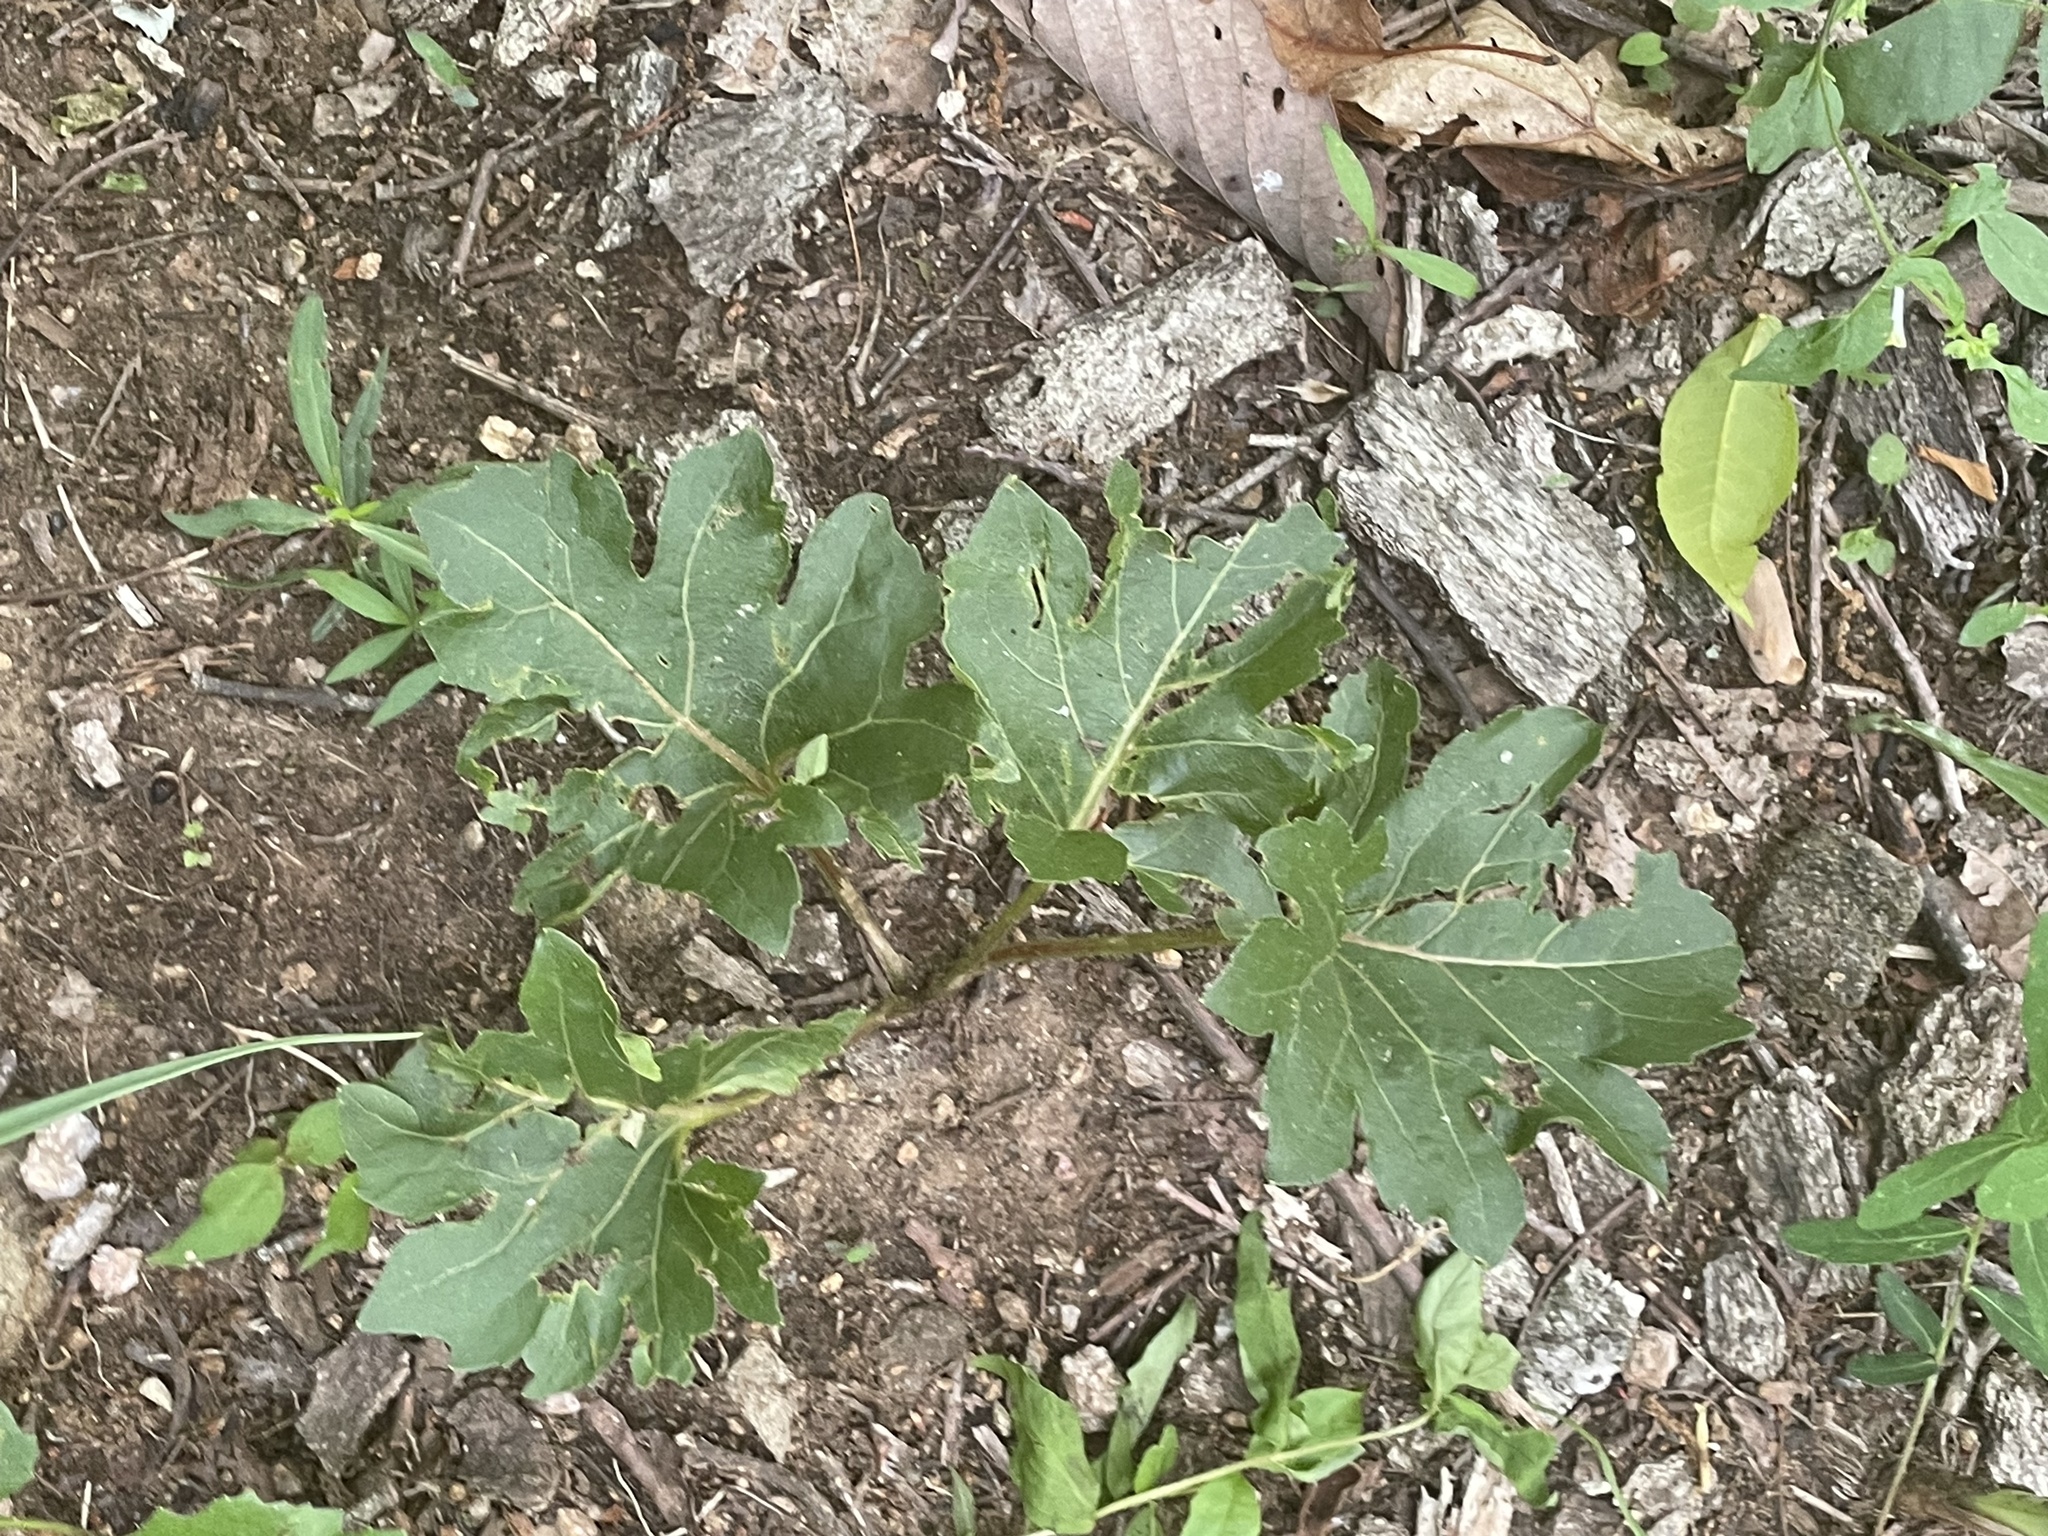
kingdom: Plantae
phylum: Tracheophyta
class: Magnoliopsida
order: Asterales
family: Asteraceae
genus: Silphium
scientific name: Silphium compositum
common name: Lesser basal-leaf rosinweed
